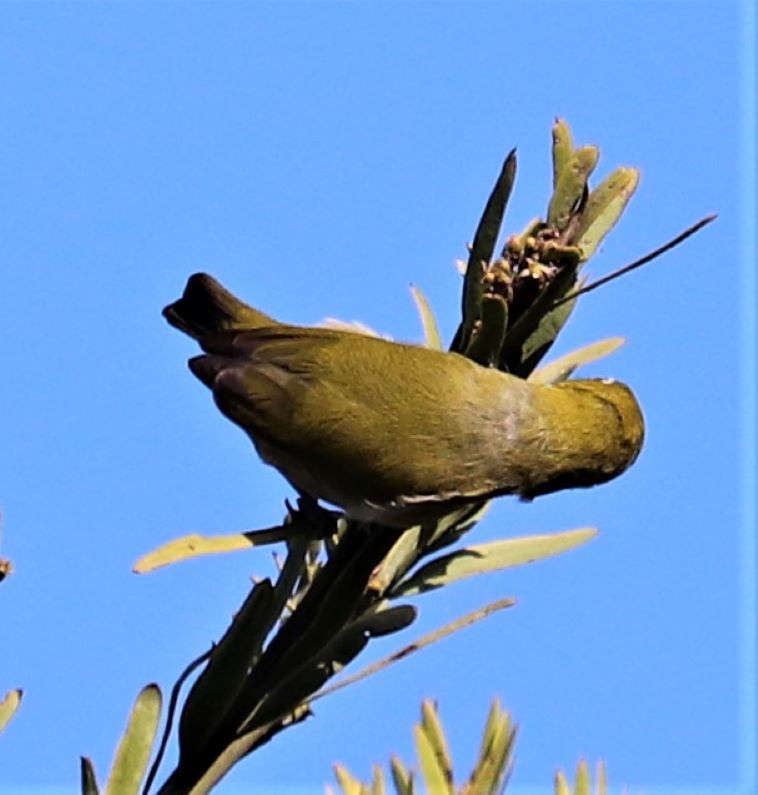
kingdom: Animalia
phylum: Chordata
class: Aves
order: Passeriformes
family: Zosteropidae
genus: Zosterops
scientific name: Zosterops virens
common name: Cape white-eye
